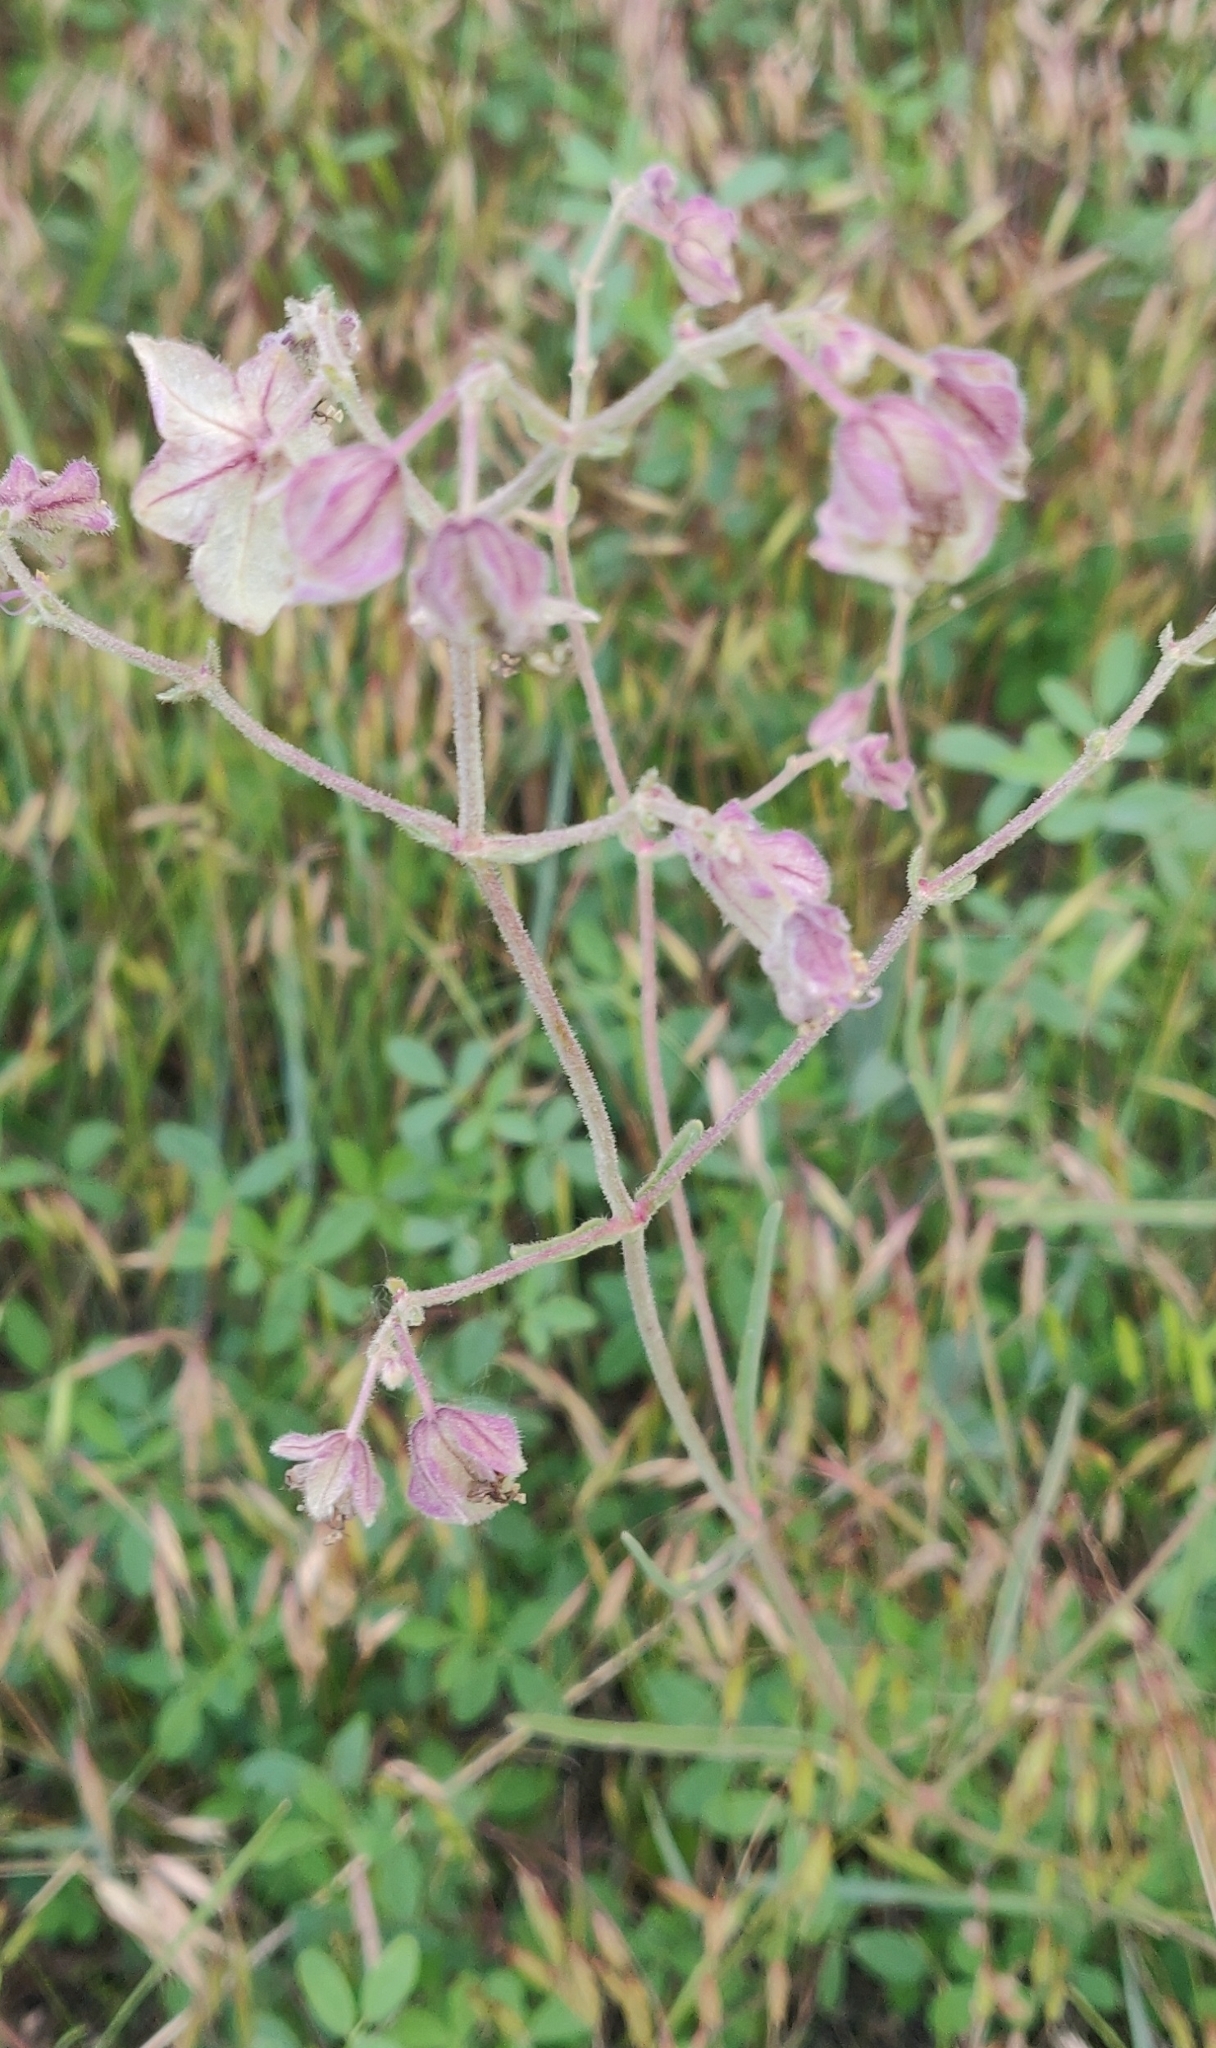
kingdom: Plantae
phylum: Tracheophyta
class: Magnoliopsida
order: Caryophyllales
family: Nyctaginaceae
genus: Mirabilis
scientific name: Mirabilis linearis
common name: Linear-leaved four-o'clock
